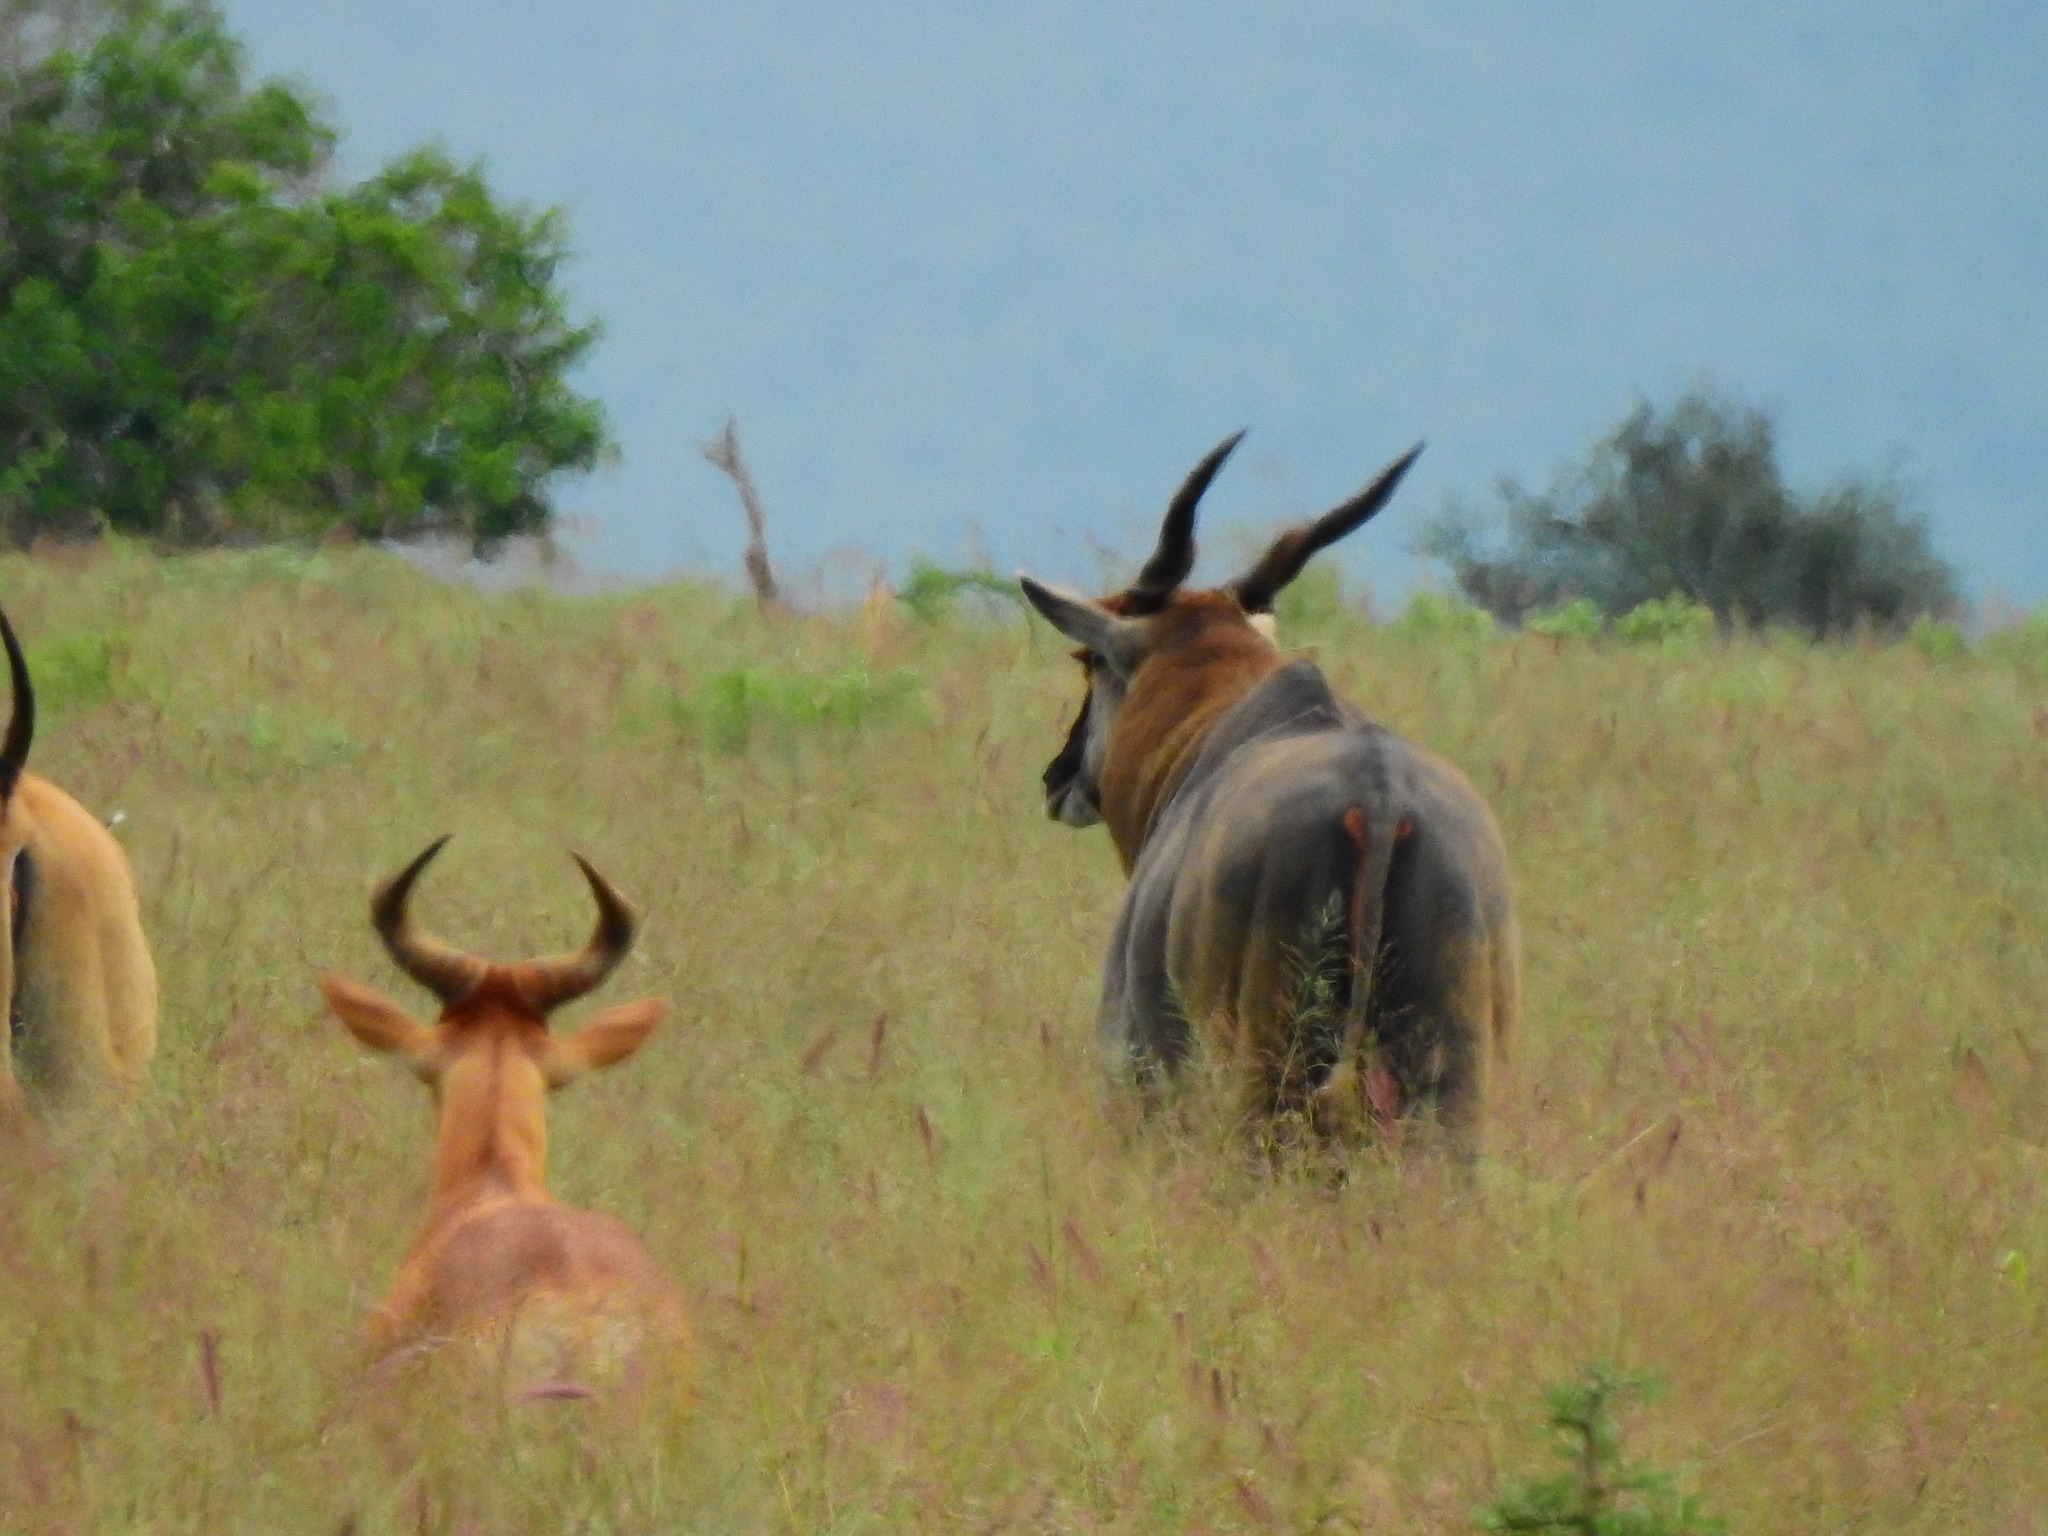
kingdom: Animalia
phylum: Chordata
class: Mammalia
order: Artiodactyla
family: Bovidae
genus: Taurotragus
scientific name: Taurotragus oryx
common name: Common eland
